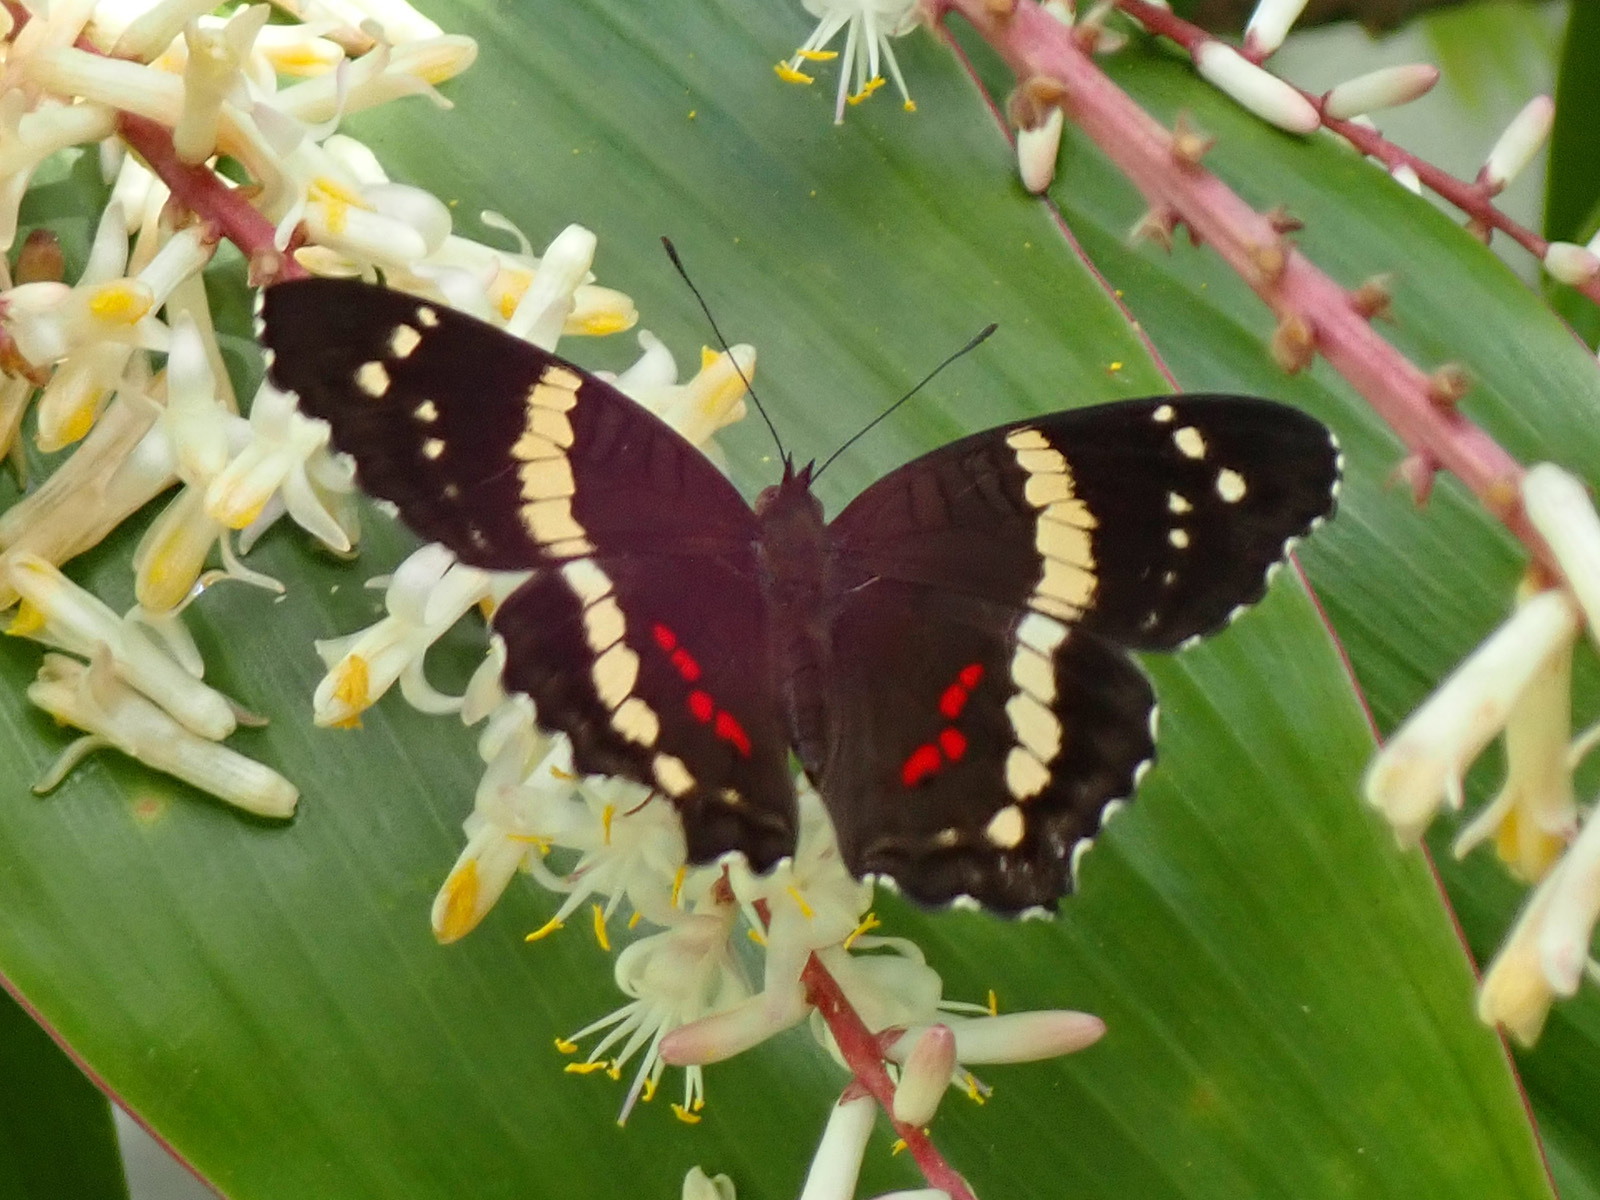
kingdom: Animalia
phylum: Arthropoda
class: Insecta
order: Lepidoptera
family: Nymphalidae
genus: Anartia
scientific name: Anartia fatima
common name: Banded peacock
